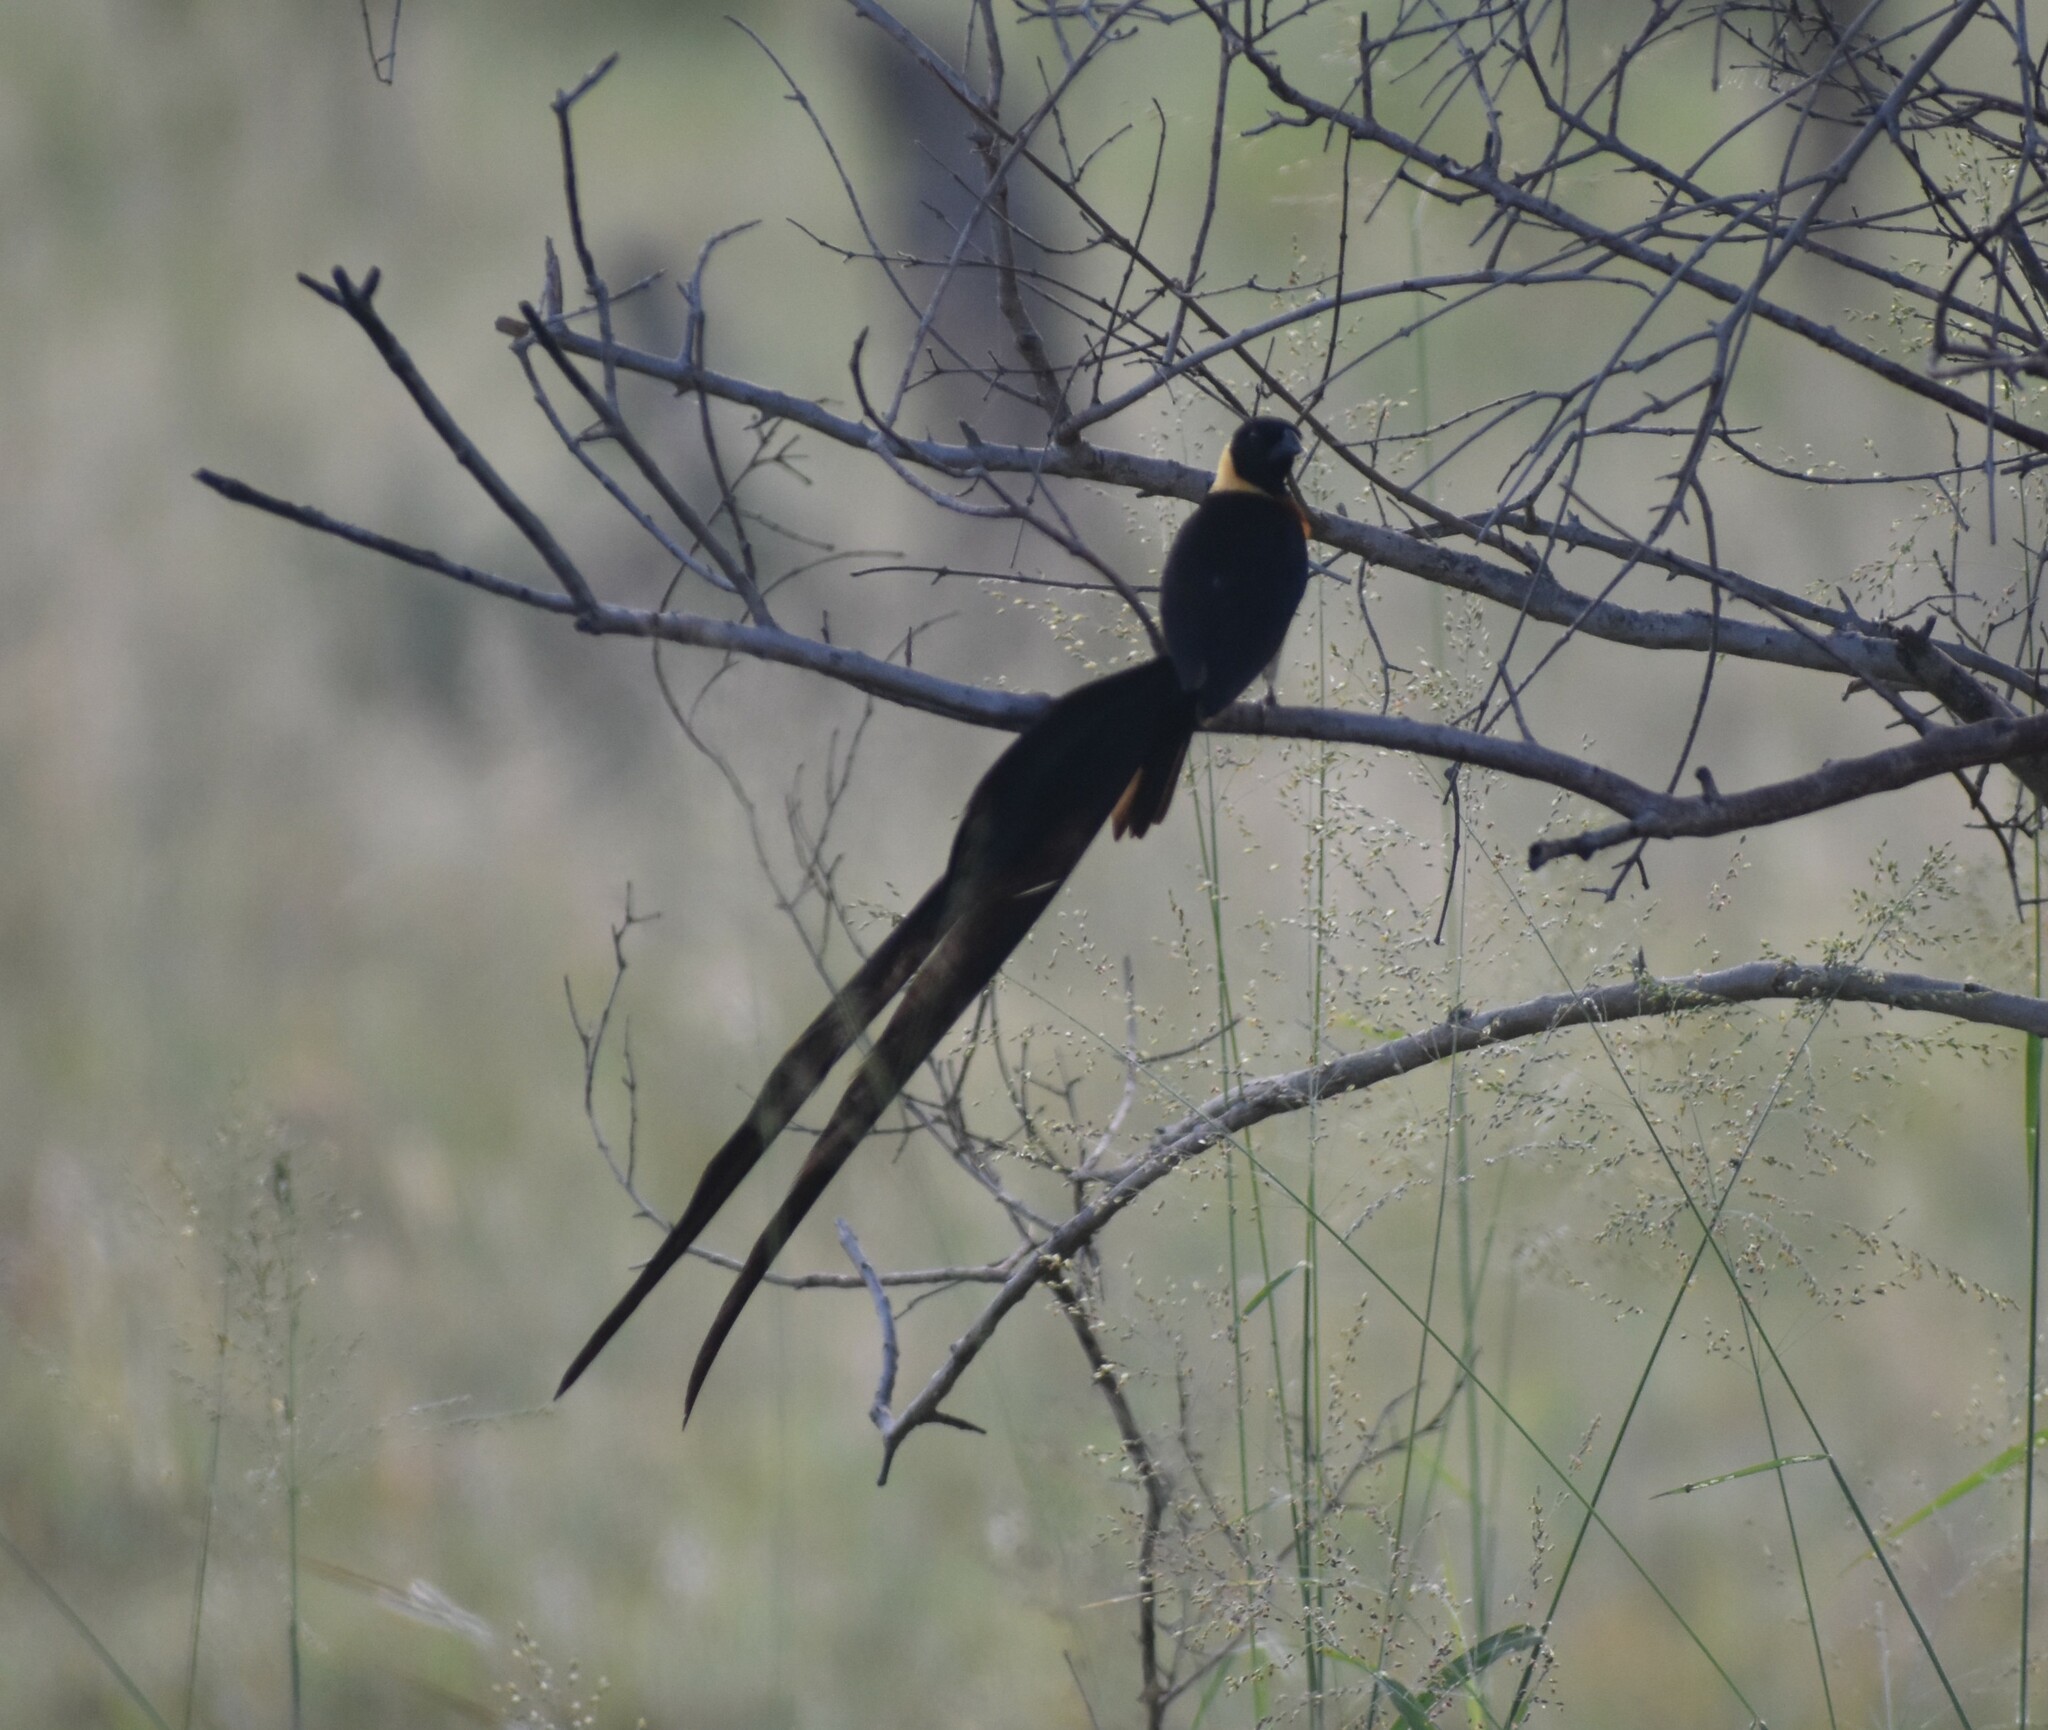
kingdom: Animalia
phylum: Chordata
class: Aves
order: Passeriformes
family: Viduidae
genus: Vidua
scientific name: Vidua paradisaea
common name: Long-tailed paradise whydah
